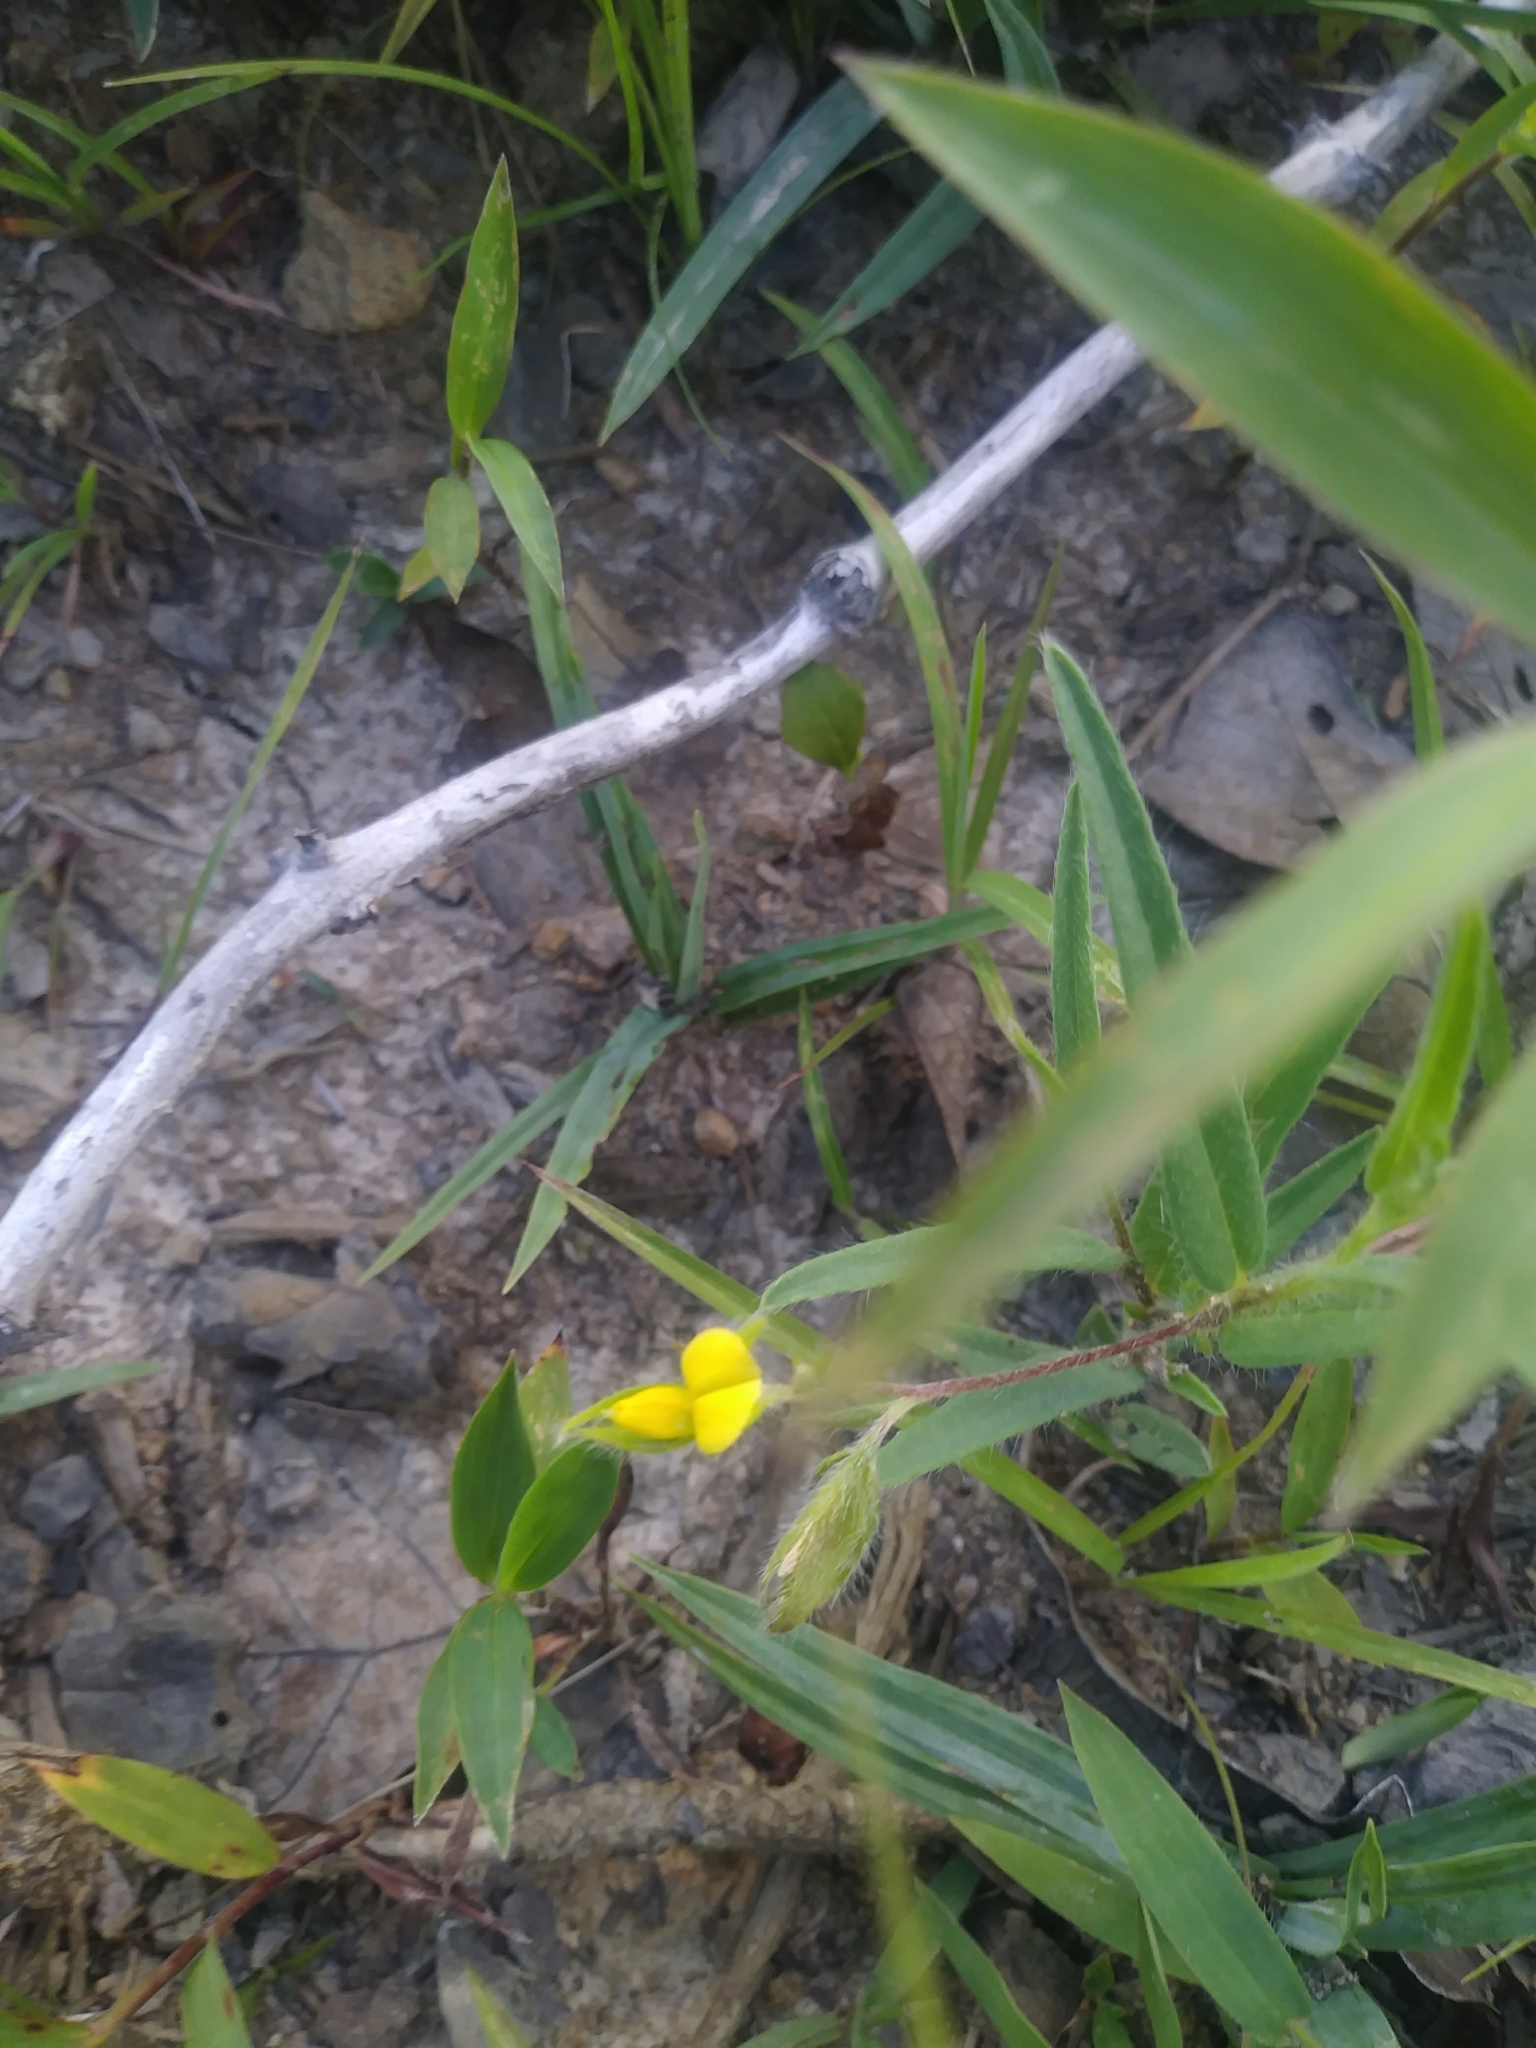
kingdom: Plantae
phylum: Tracheophyta
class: Magnoliopsida
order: Fabales
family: Fabaceae
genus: Crotalaria
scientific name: Crotalaria sagittalis
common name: Arrowhead rattlebox
